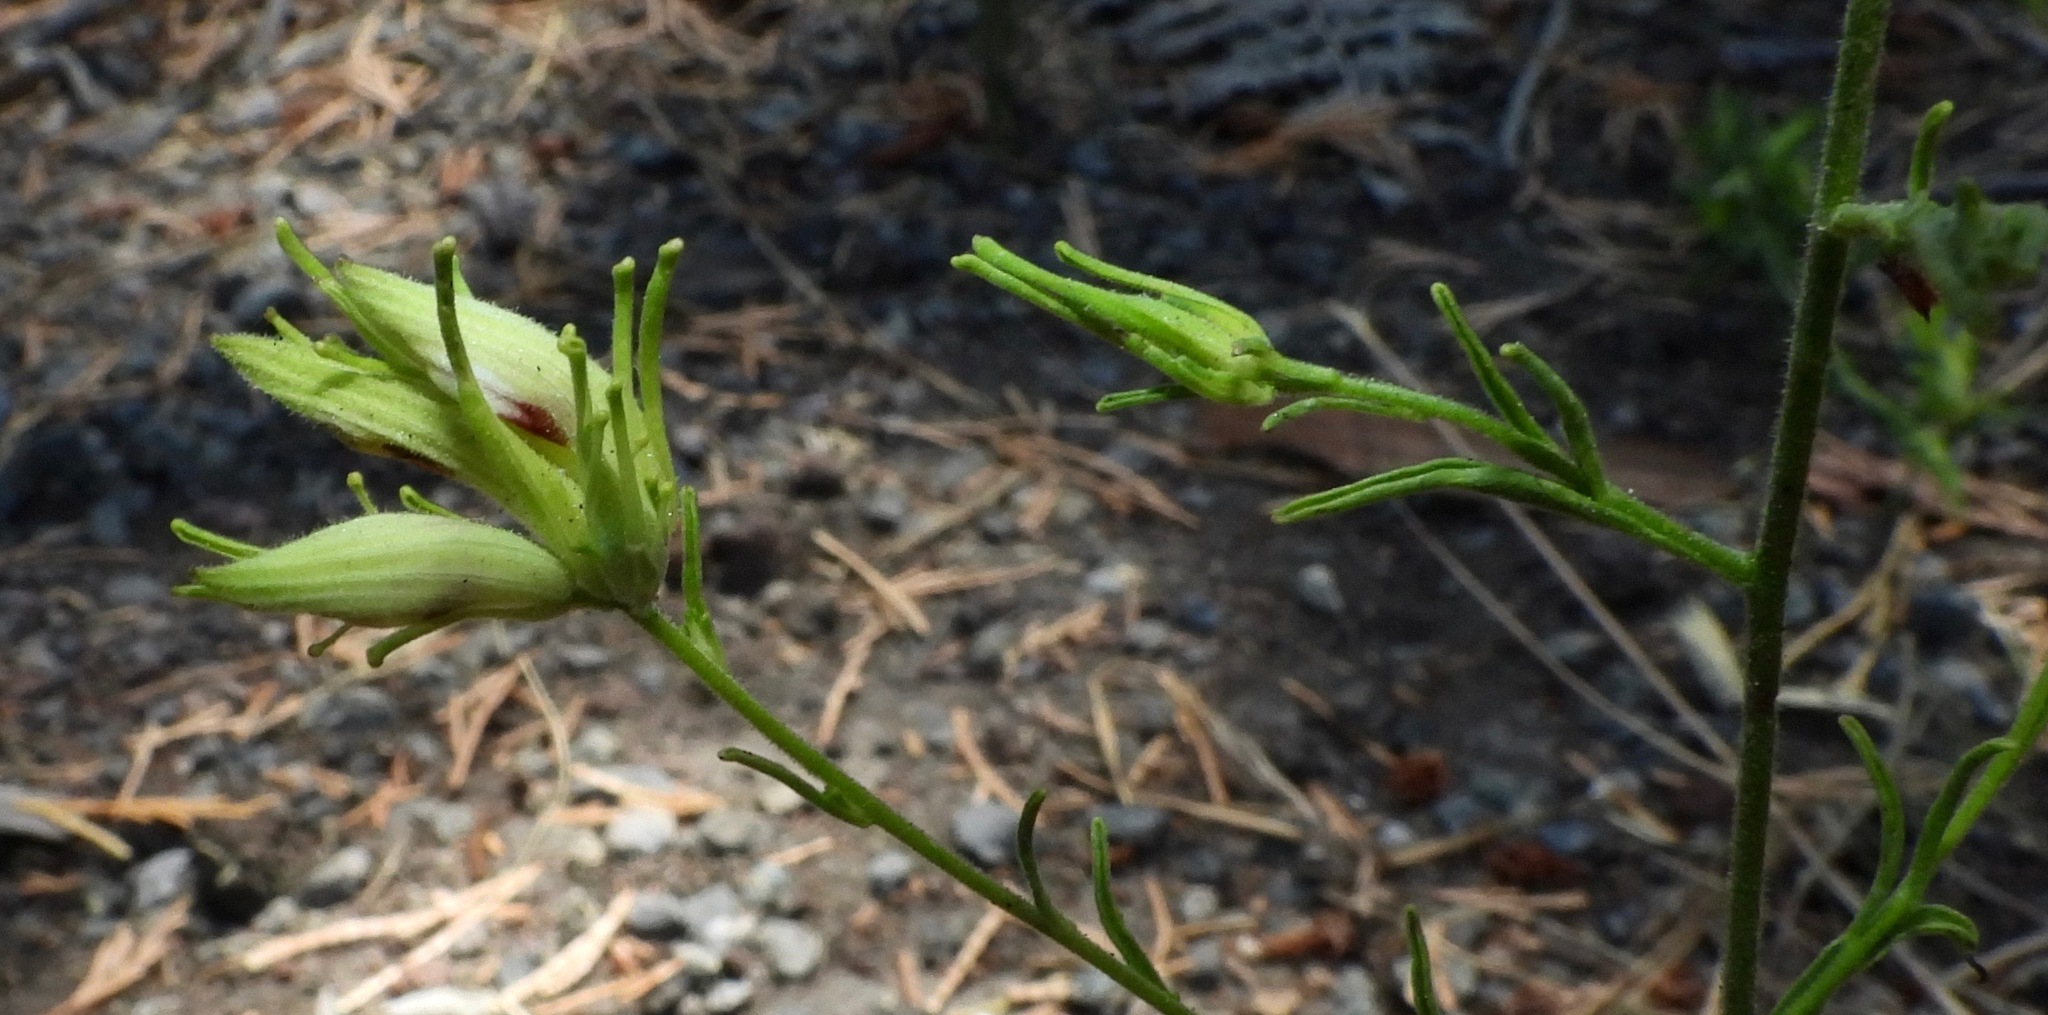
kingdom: Plantae
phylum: Tracheophyta
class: Magnoliopsida
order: Lamiales
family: Orobanchaceae
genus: Cordylanthus
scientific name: Cordylanthus tenuis
